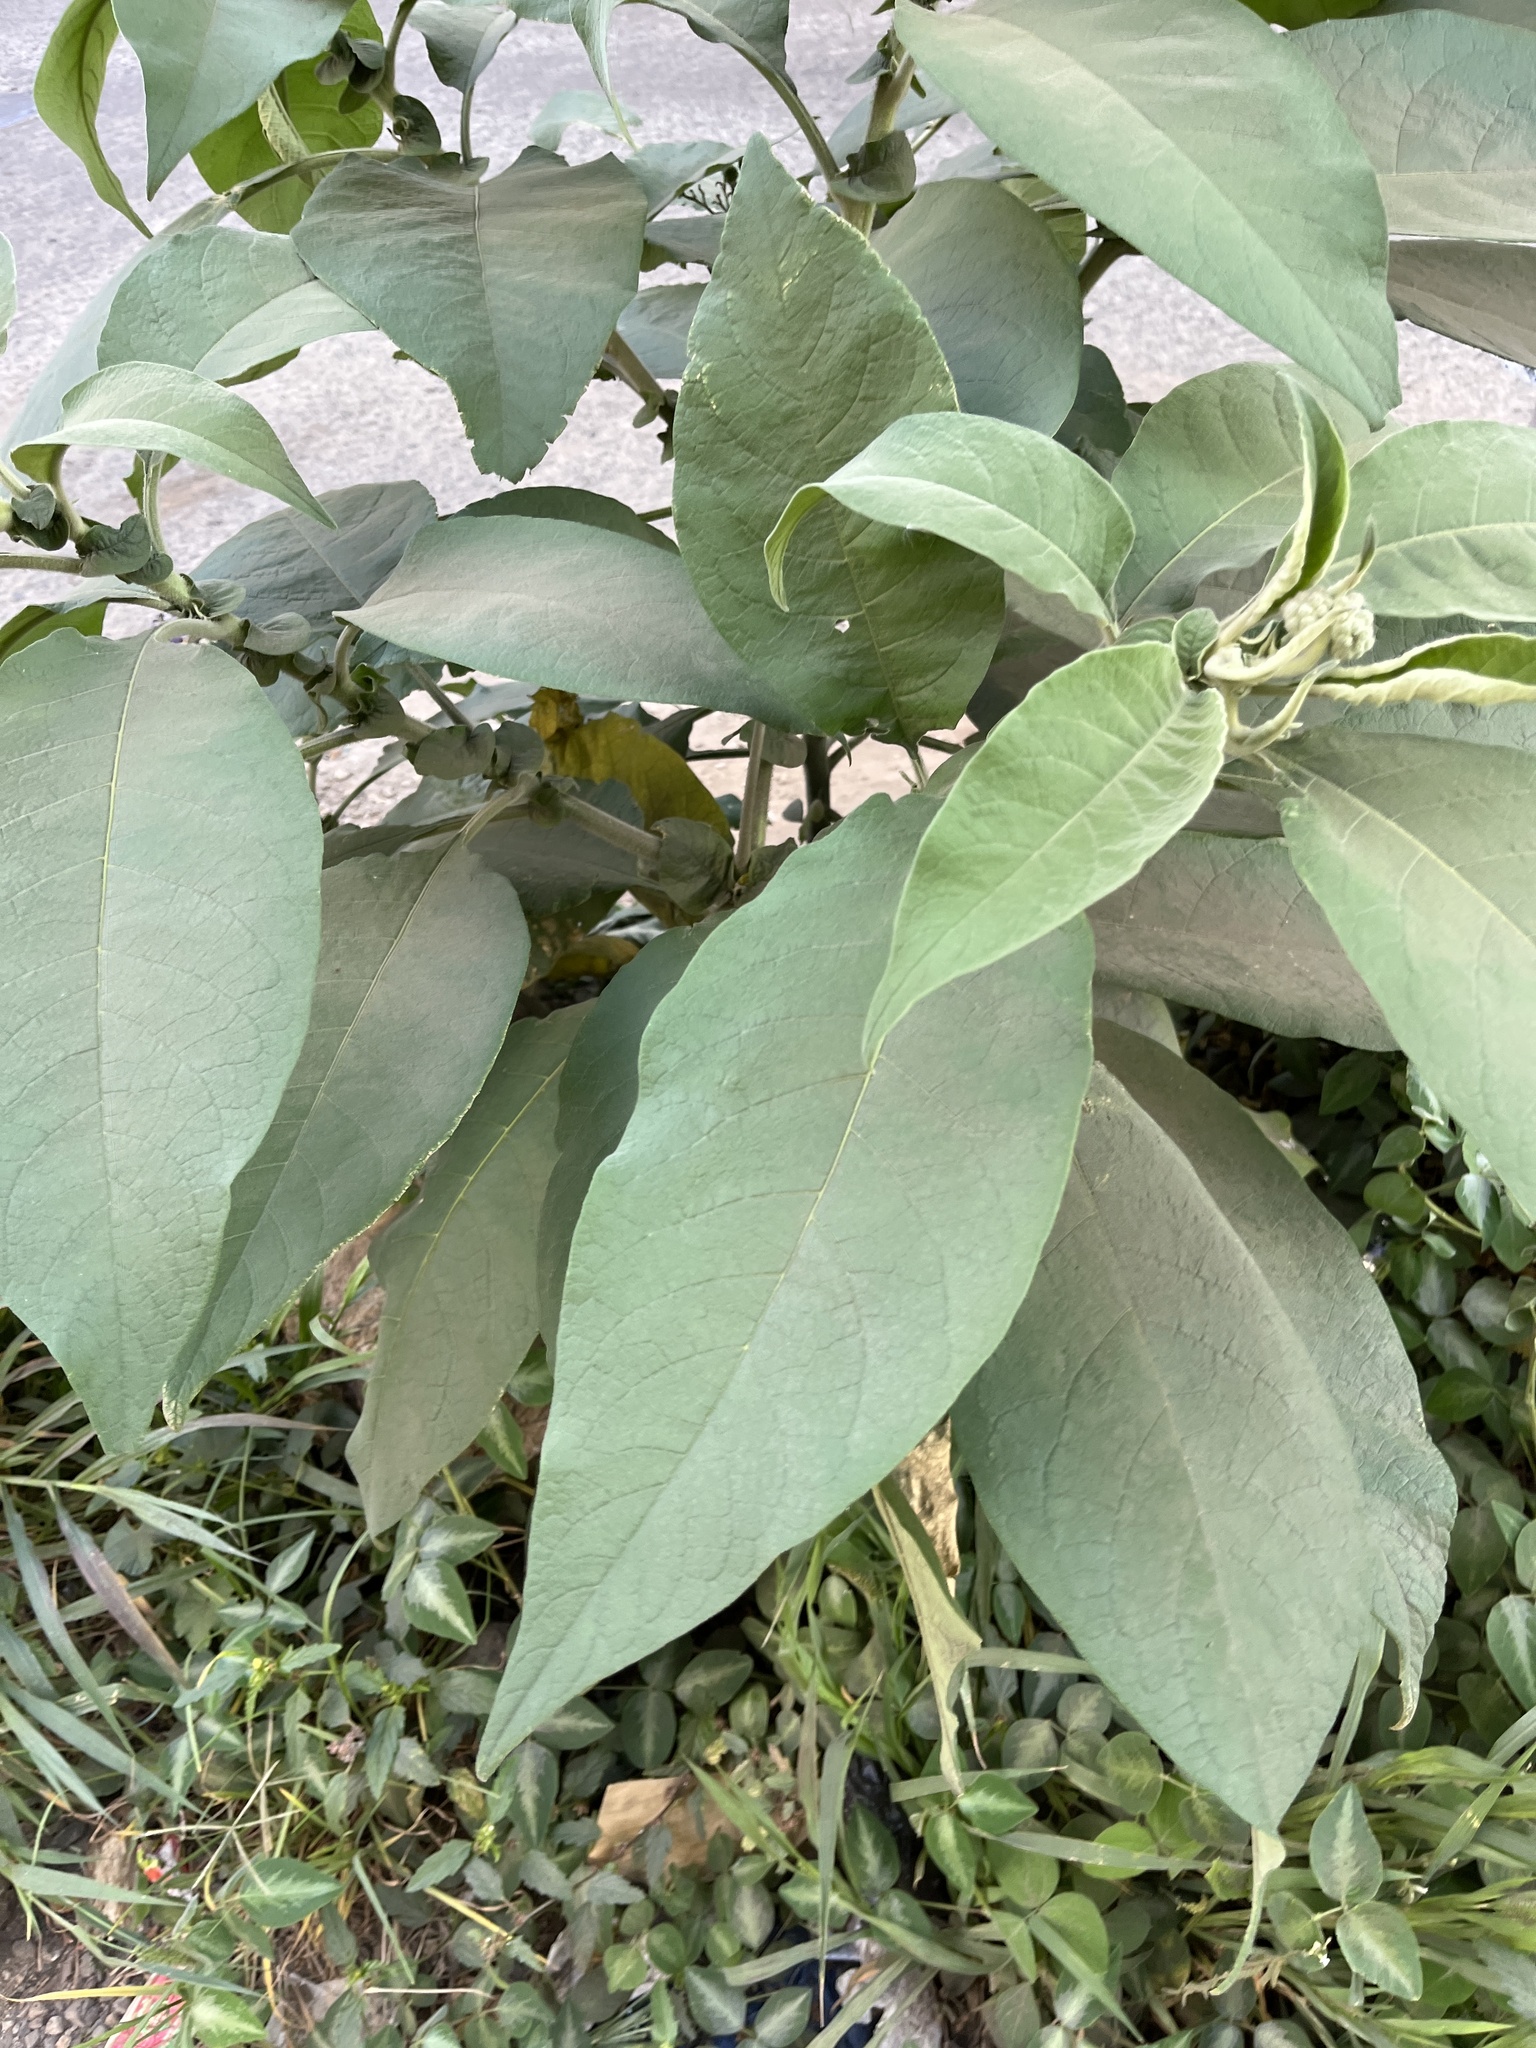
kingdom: Plantae
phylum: Tracheophyta
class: Magnoliopsida
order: Solanales
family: Solanaceae
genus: Solanum
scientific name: Solanum mauritianum
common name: Earleaf nightshade
